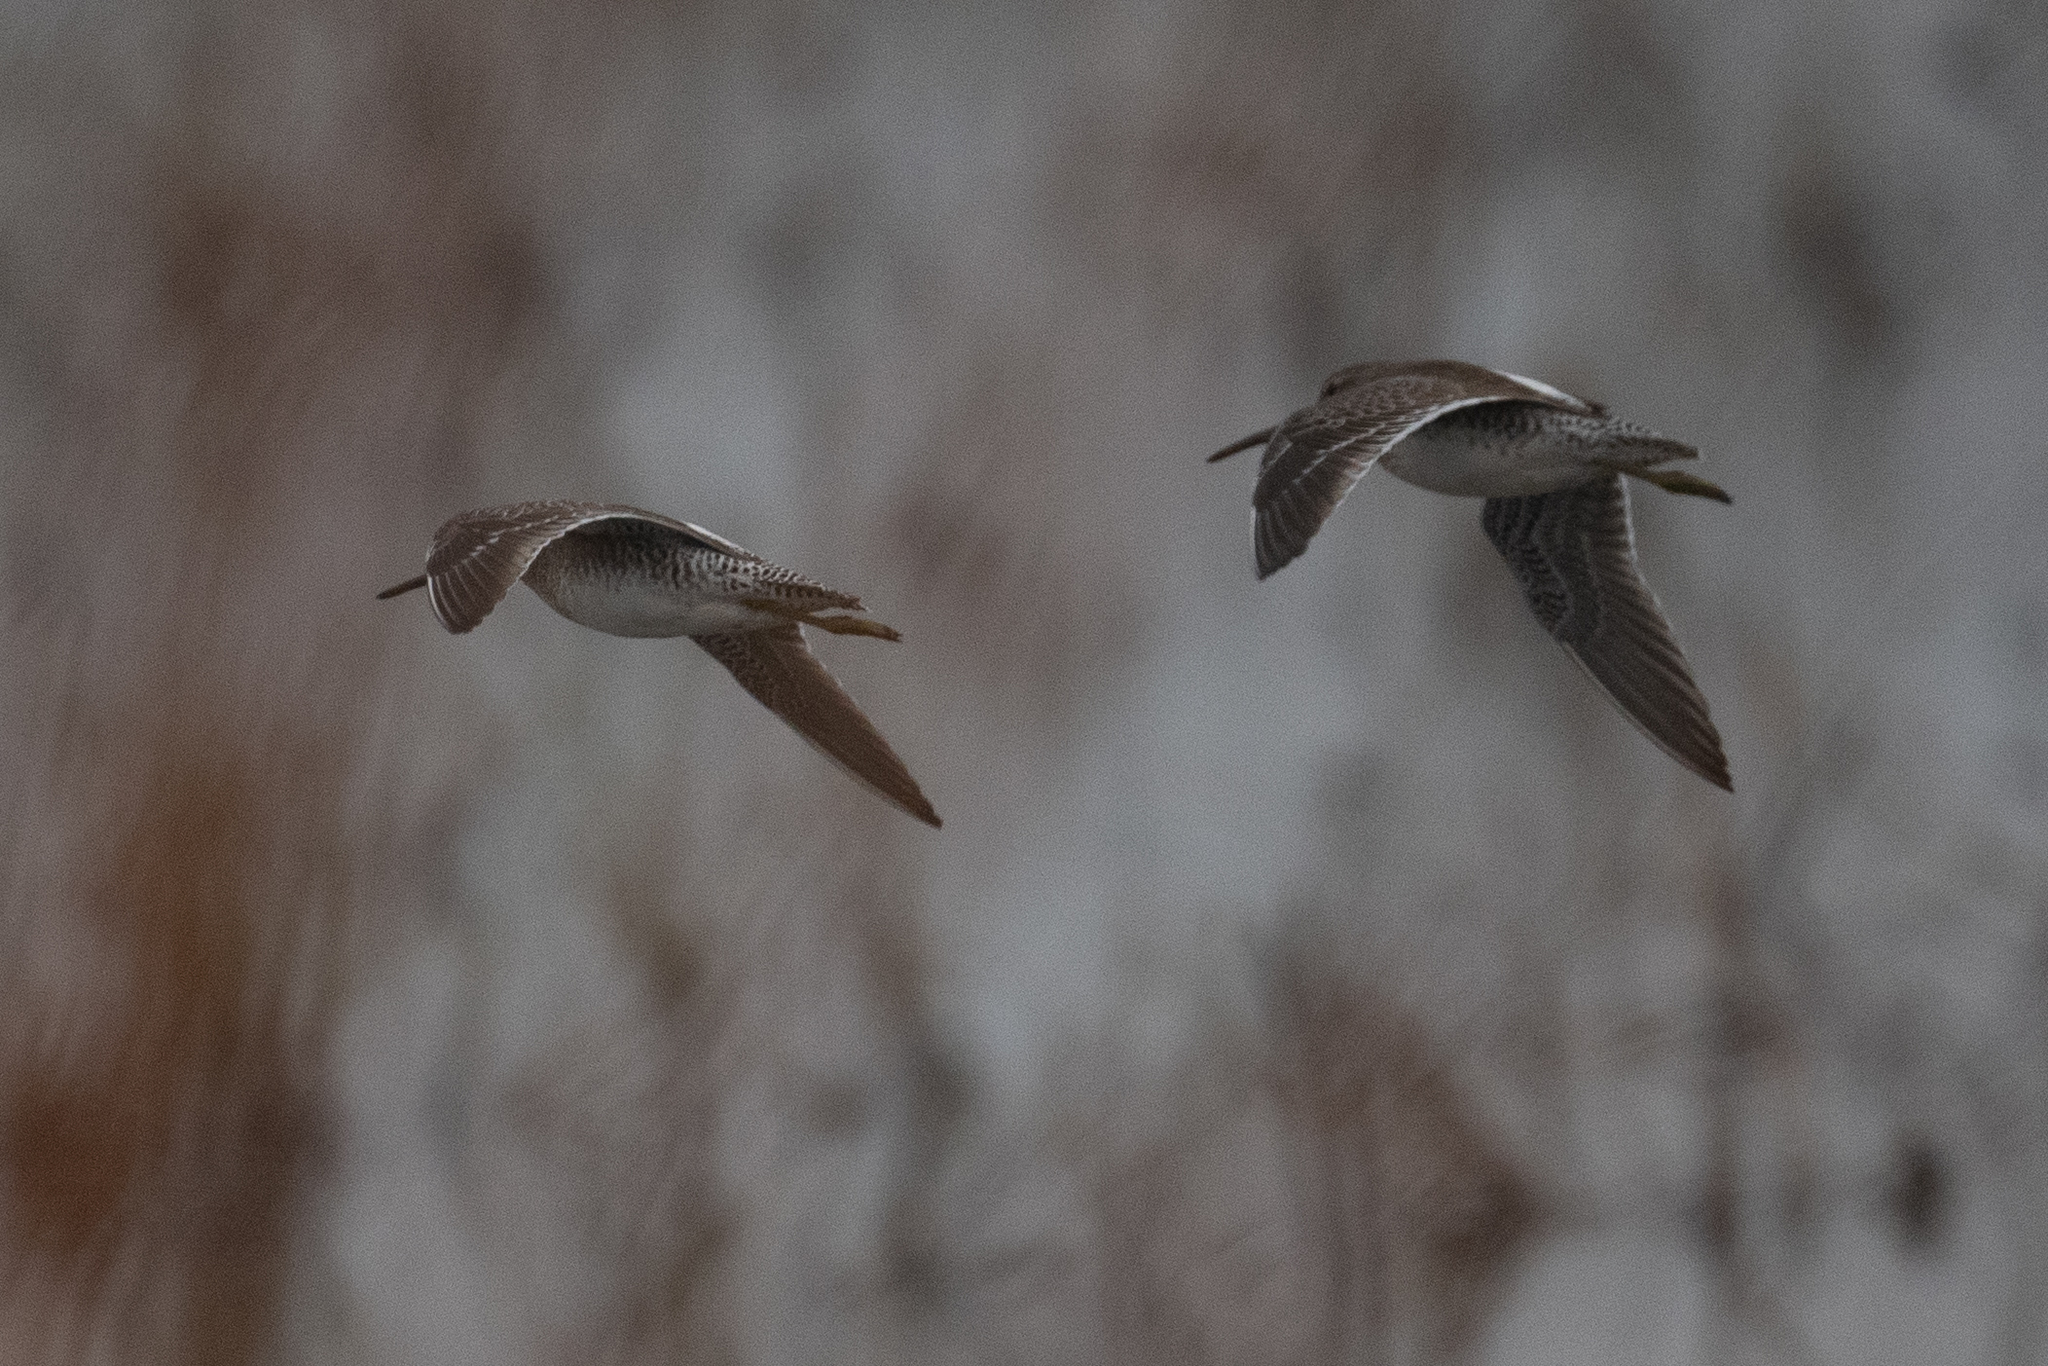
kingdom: Animalia
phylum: Chordata
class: Aves
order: Charadriiformes
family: Scolopacidae
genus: Limnodromus
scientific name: Limnodromus scolopaceus
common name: Long-billed dowitcher
